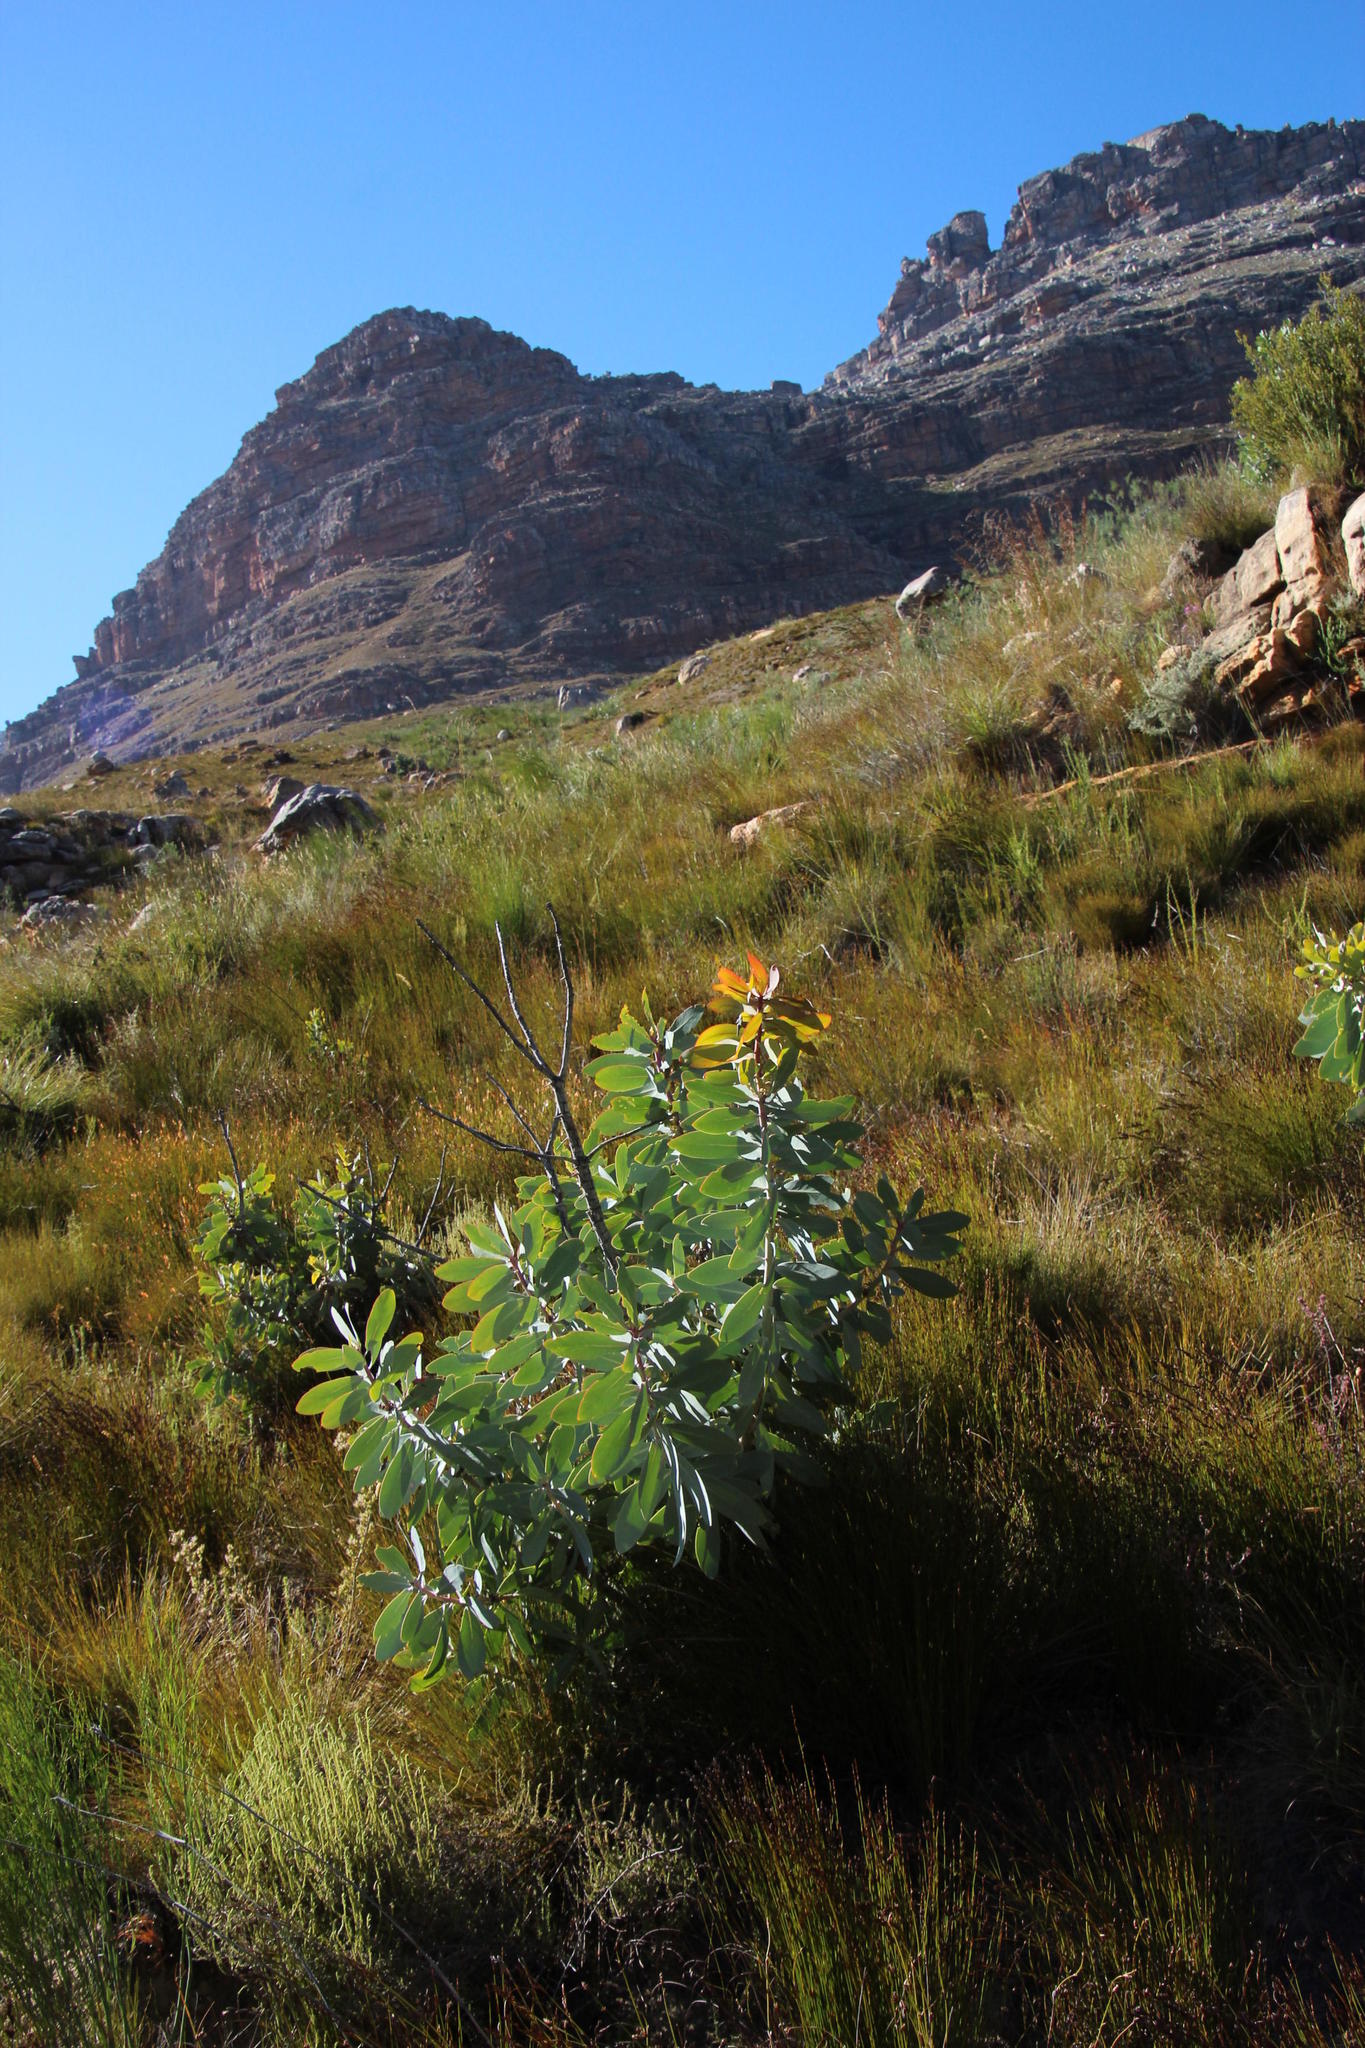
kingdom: Plantae
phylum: Tracheophyta
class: Magnoliopsida
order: Proteales
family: Proteaceae
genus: Protea
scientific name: Protea nitida
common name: Tree protea
